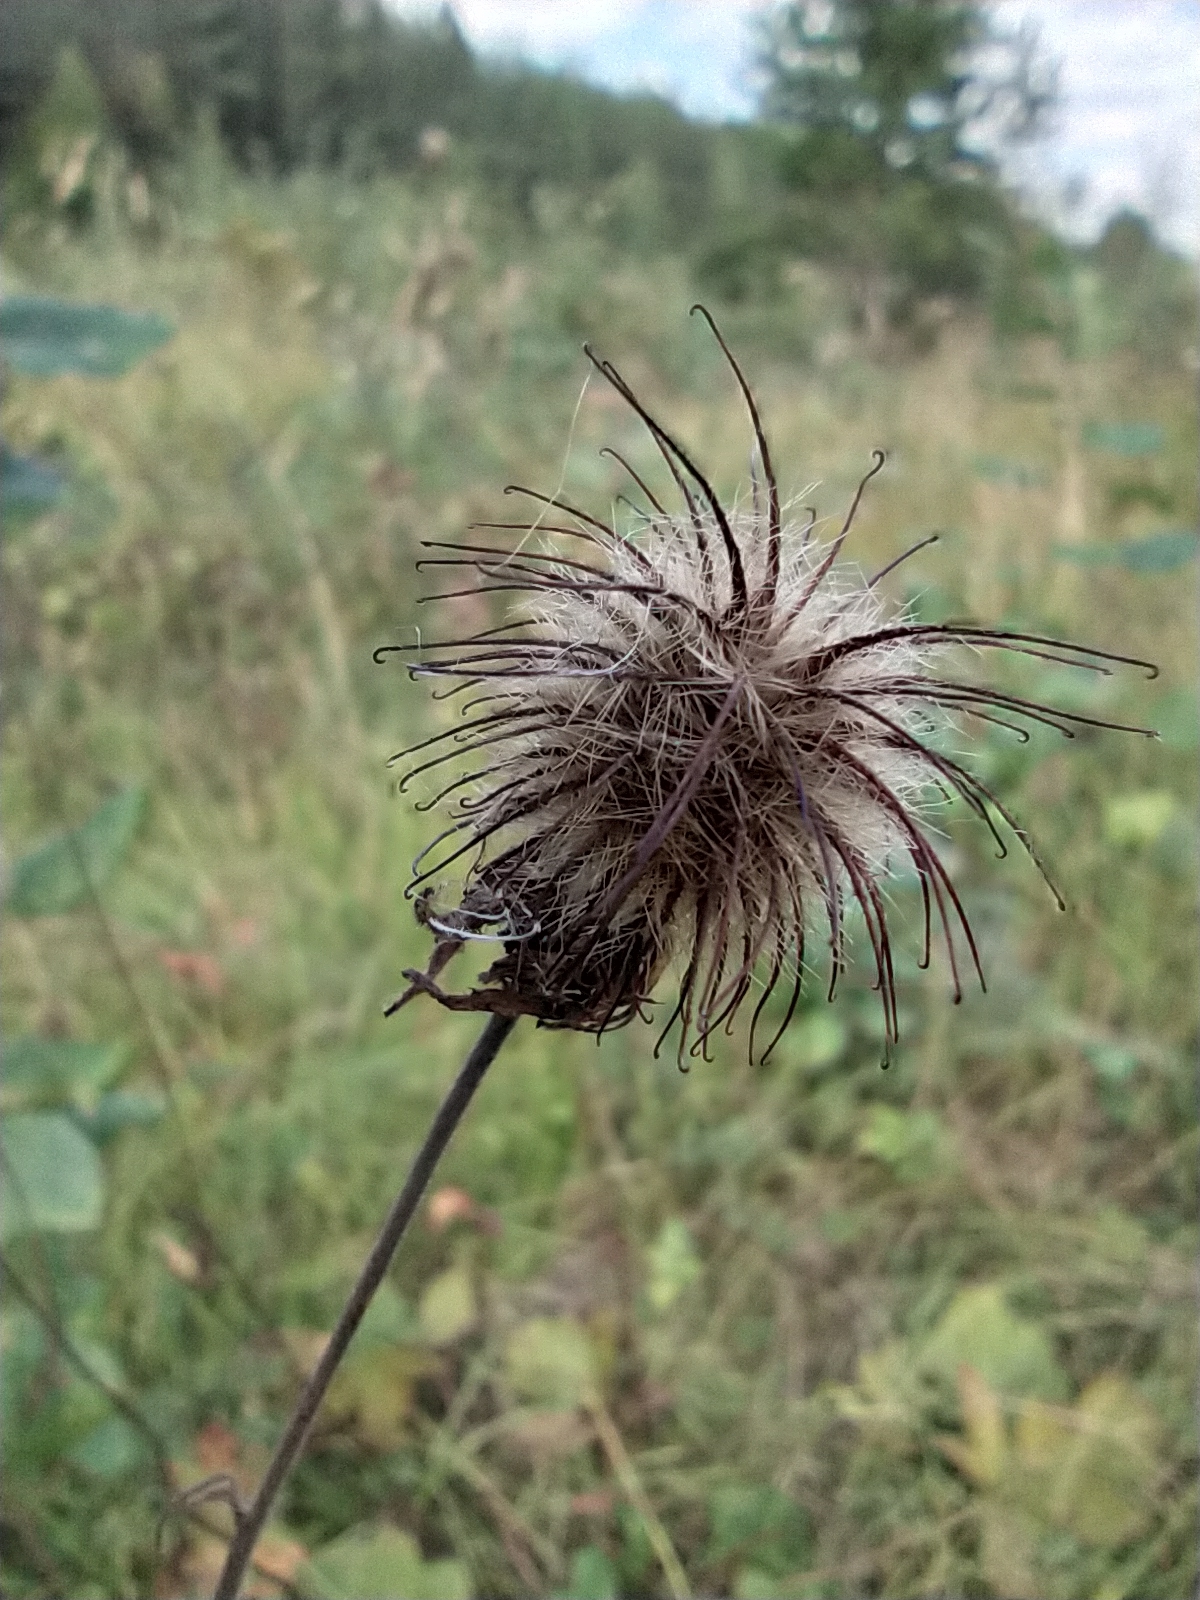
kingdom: Plantae
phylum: Tracheophyta
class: Magnoliopsida
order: Rosales
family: Rosaceae
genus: Geum
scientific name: Geum rivale
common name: Water avens
